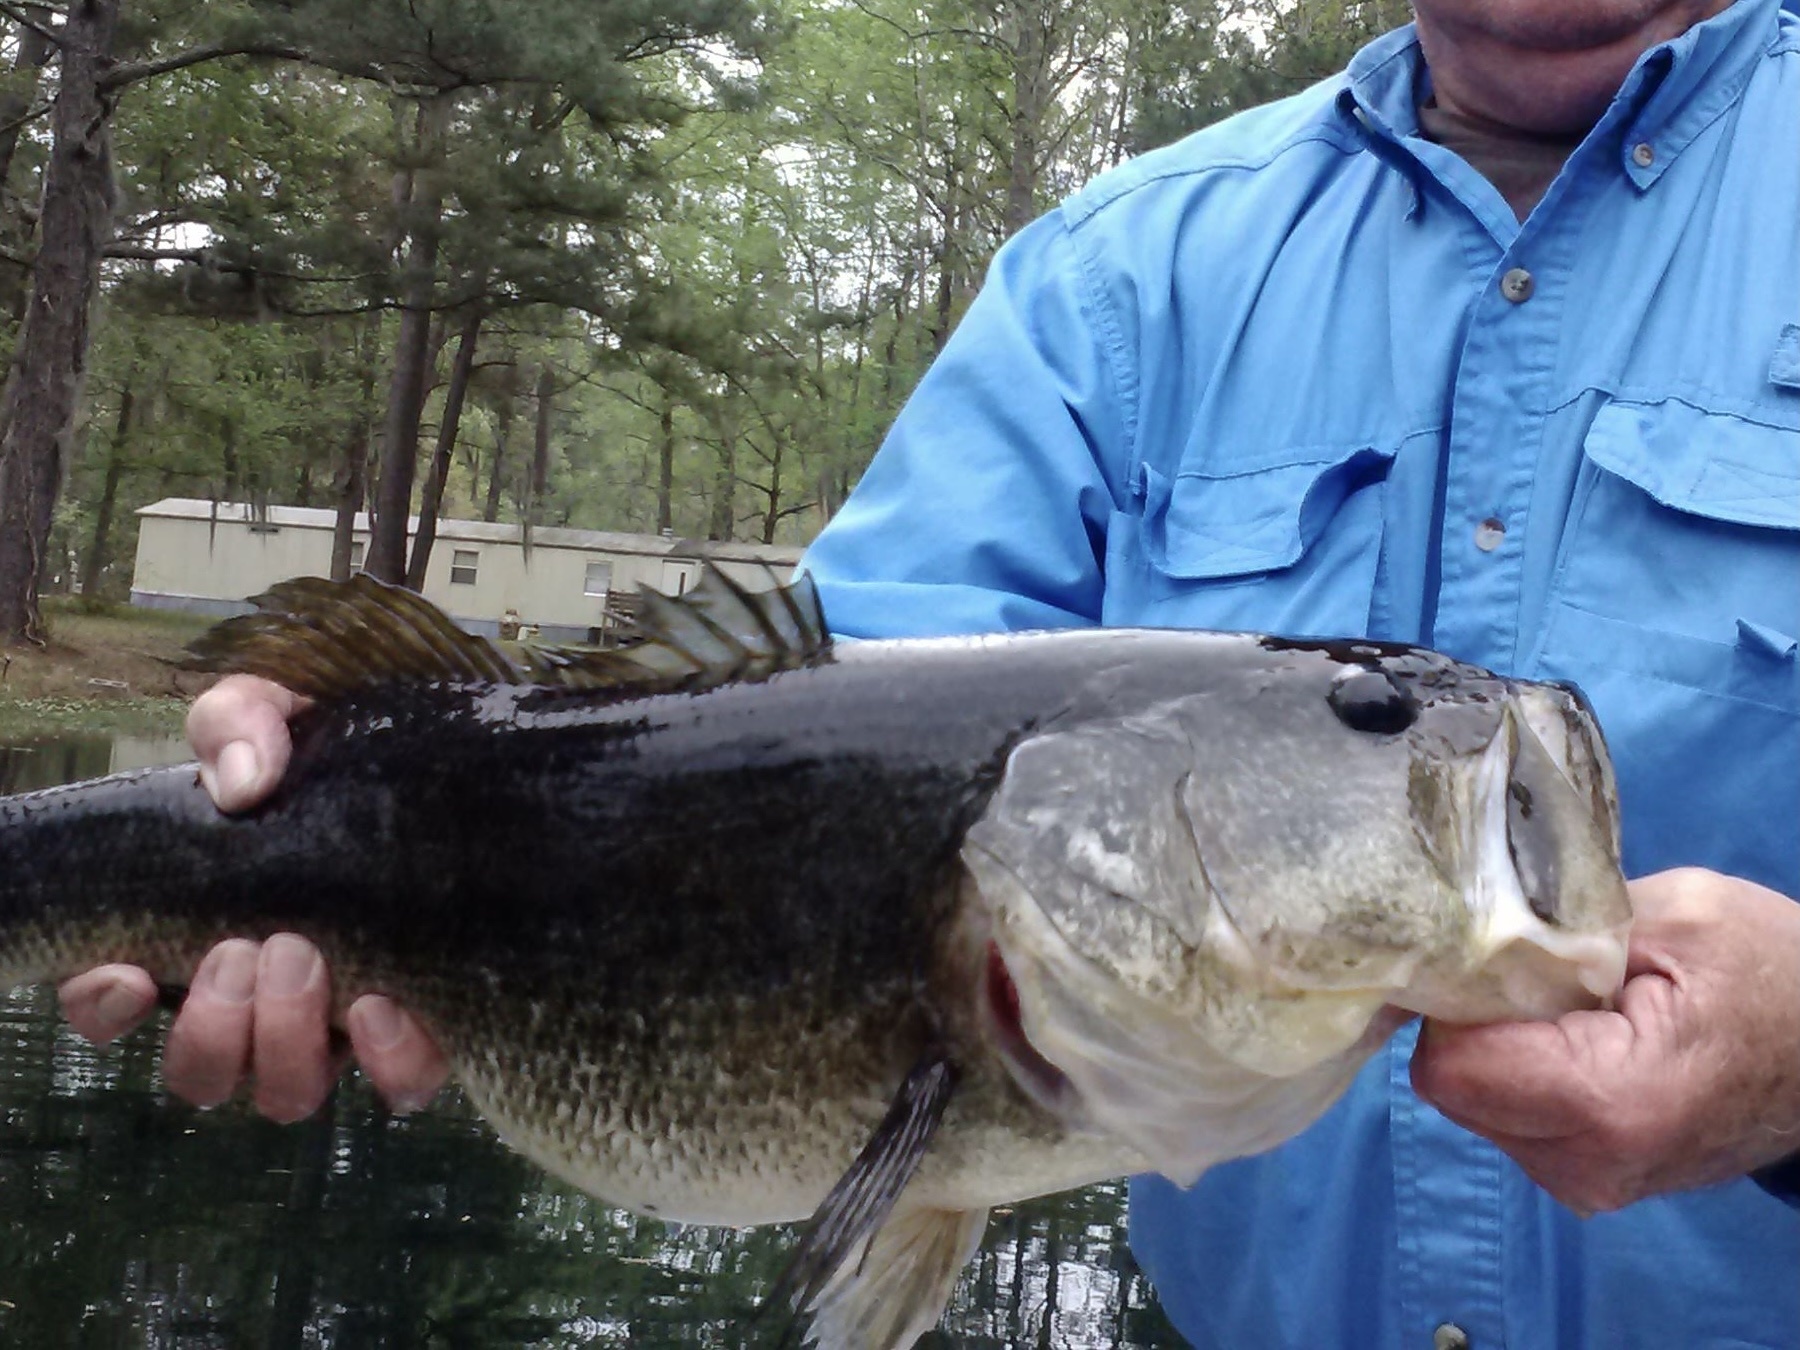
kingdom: Animalia
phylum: Chordata
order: Perciformes
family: Centrarchidae
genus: Micropterus
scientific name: Micropterus salmoides
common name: Largemouth bass
